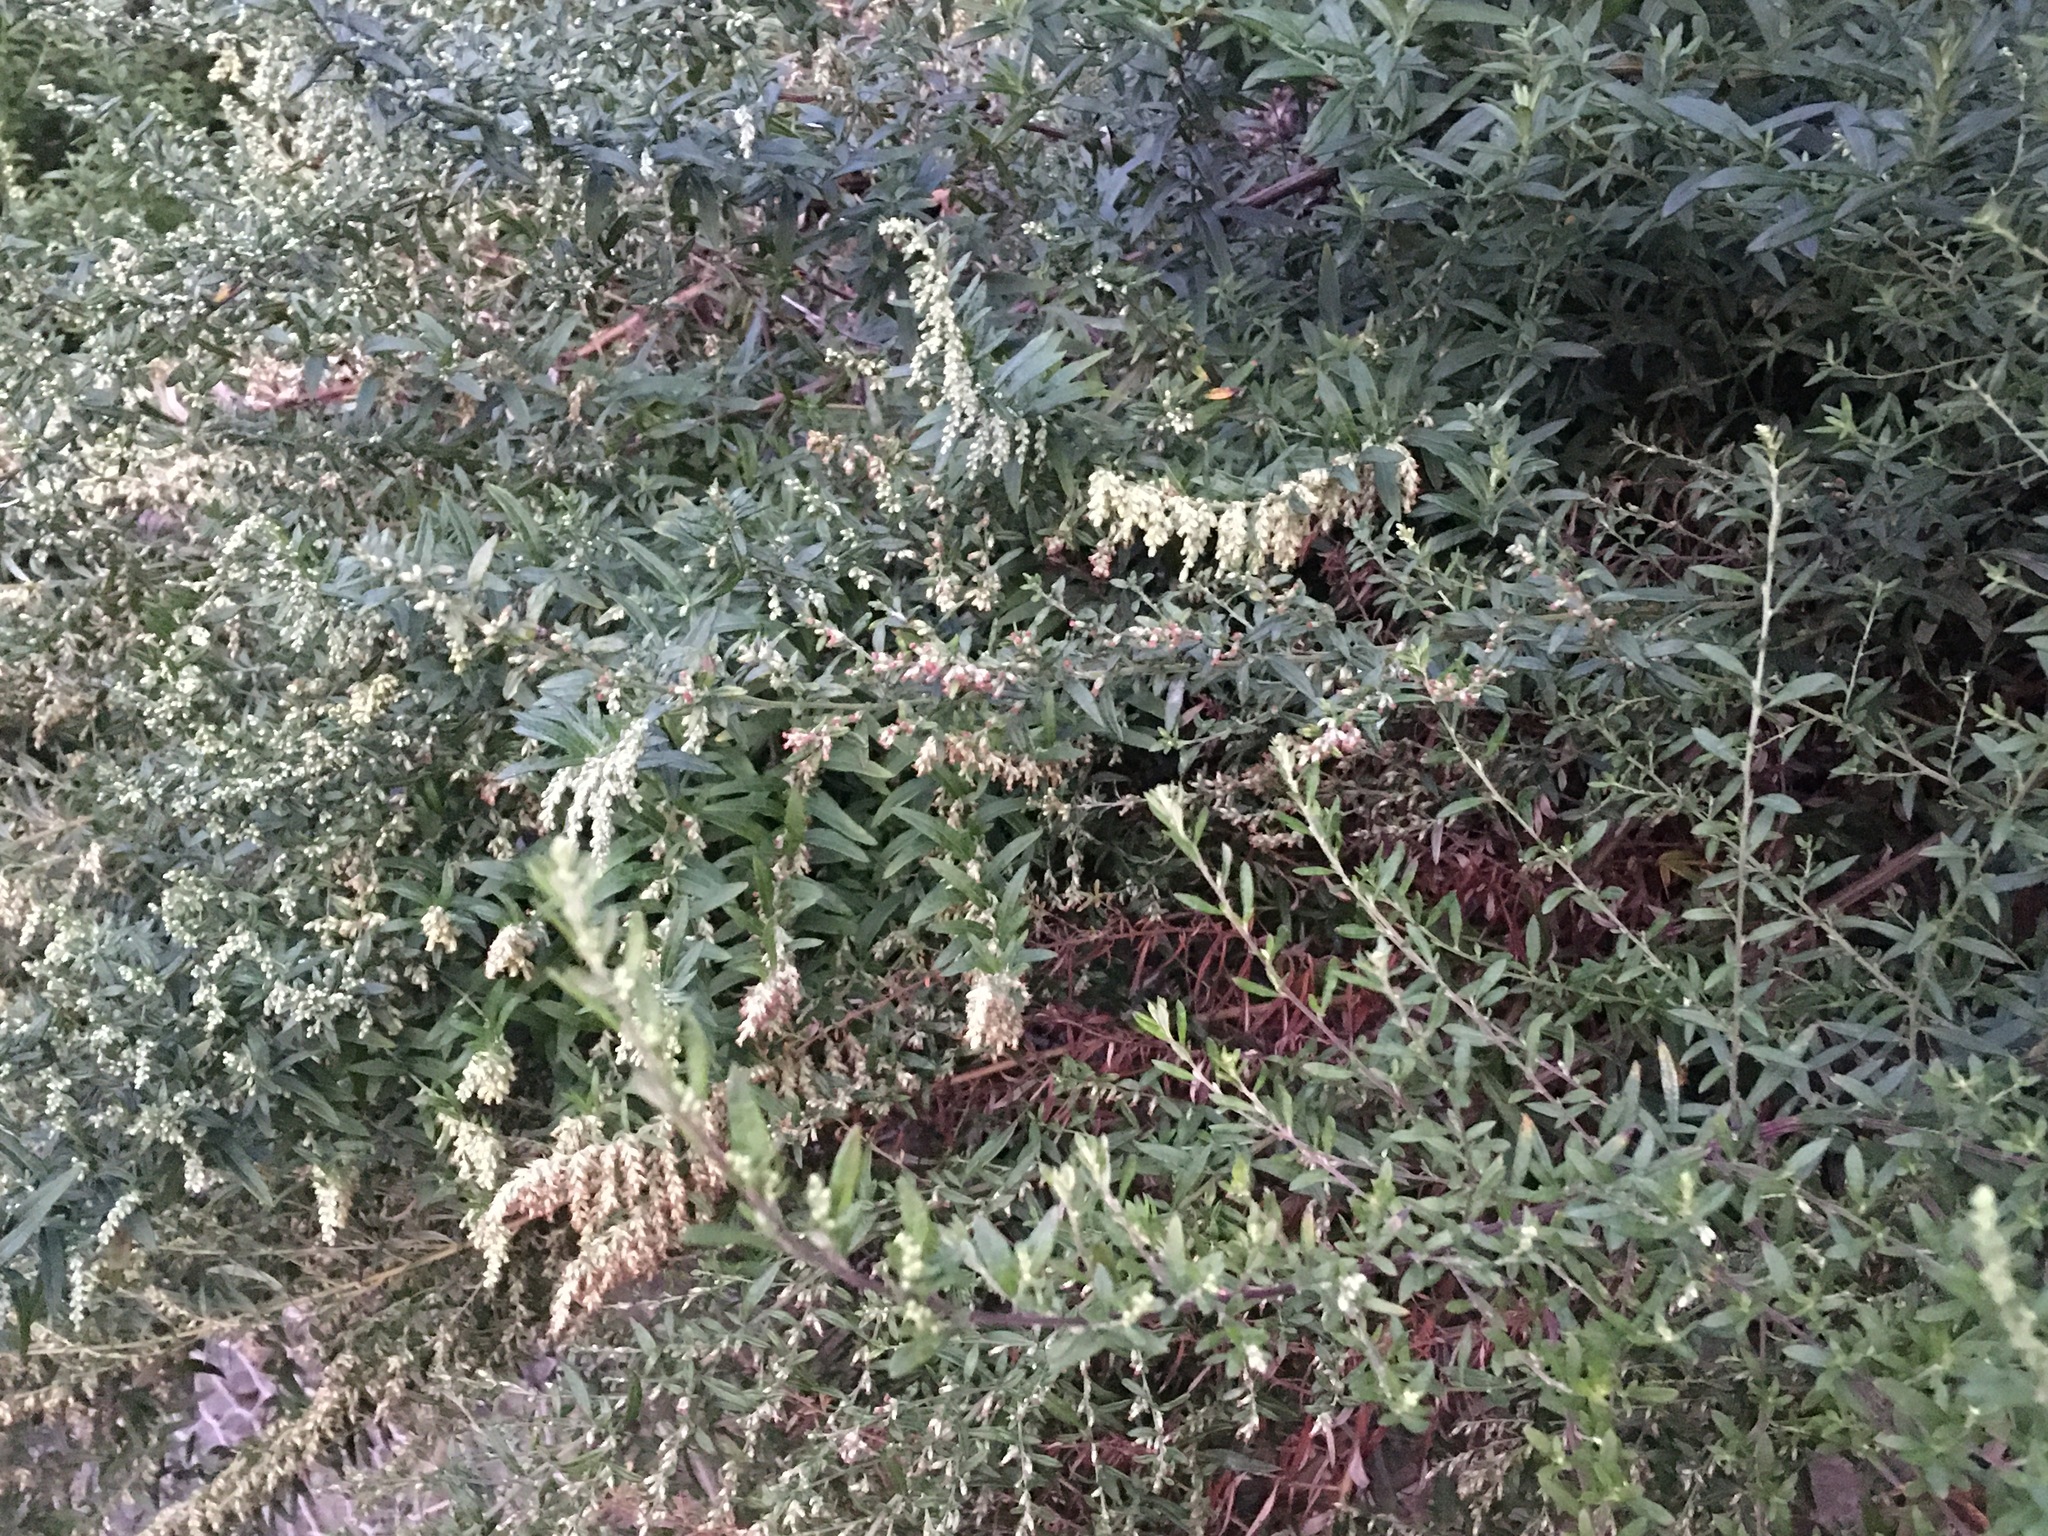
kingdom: Plantae
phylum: Tracheophyta
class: Magnoliopsida
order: Asterales
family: Asteraceae
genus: Artemisia
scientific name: Artemisia vulgaris
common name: Mugwort
